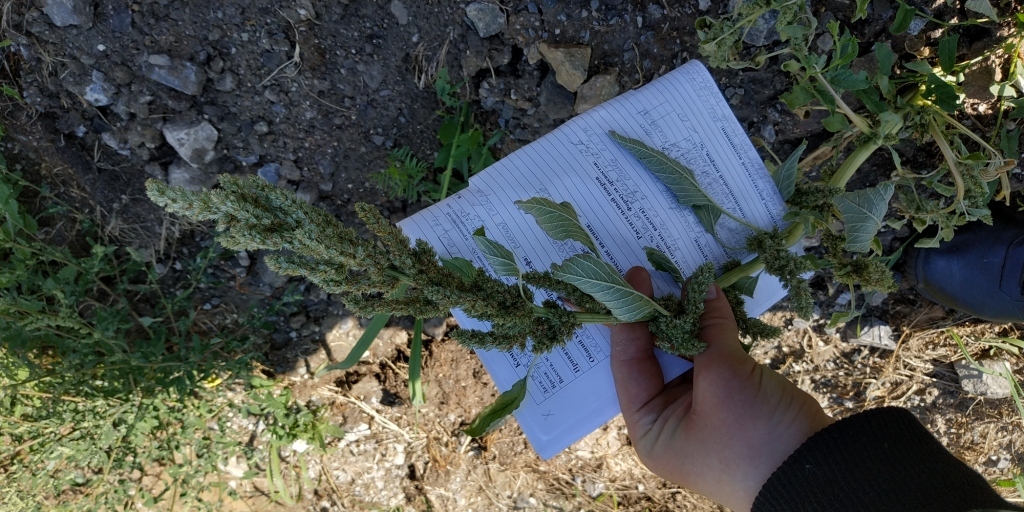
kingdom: Plantae
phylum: Tracheophyta
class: Magnoliopsida
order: Caryophyllales
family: Amaranthaceae
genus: Amaranthus
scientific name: Amaranthus retroflexus
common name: Redroot amaranth
